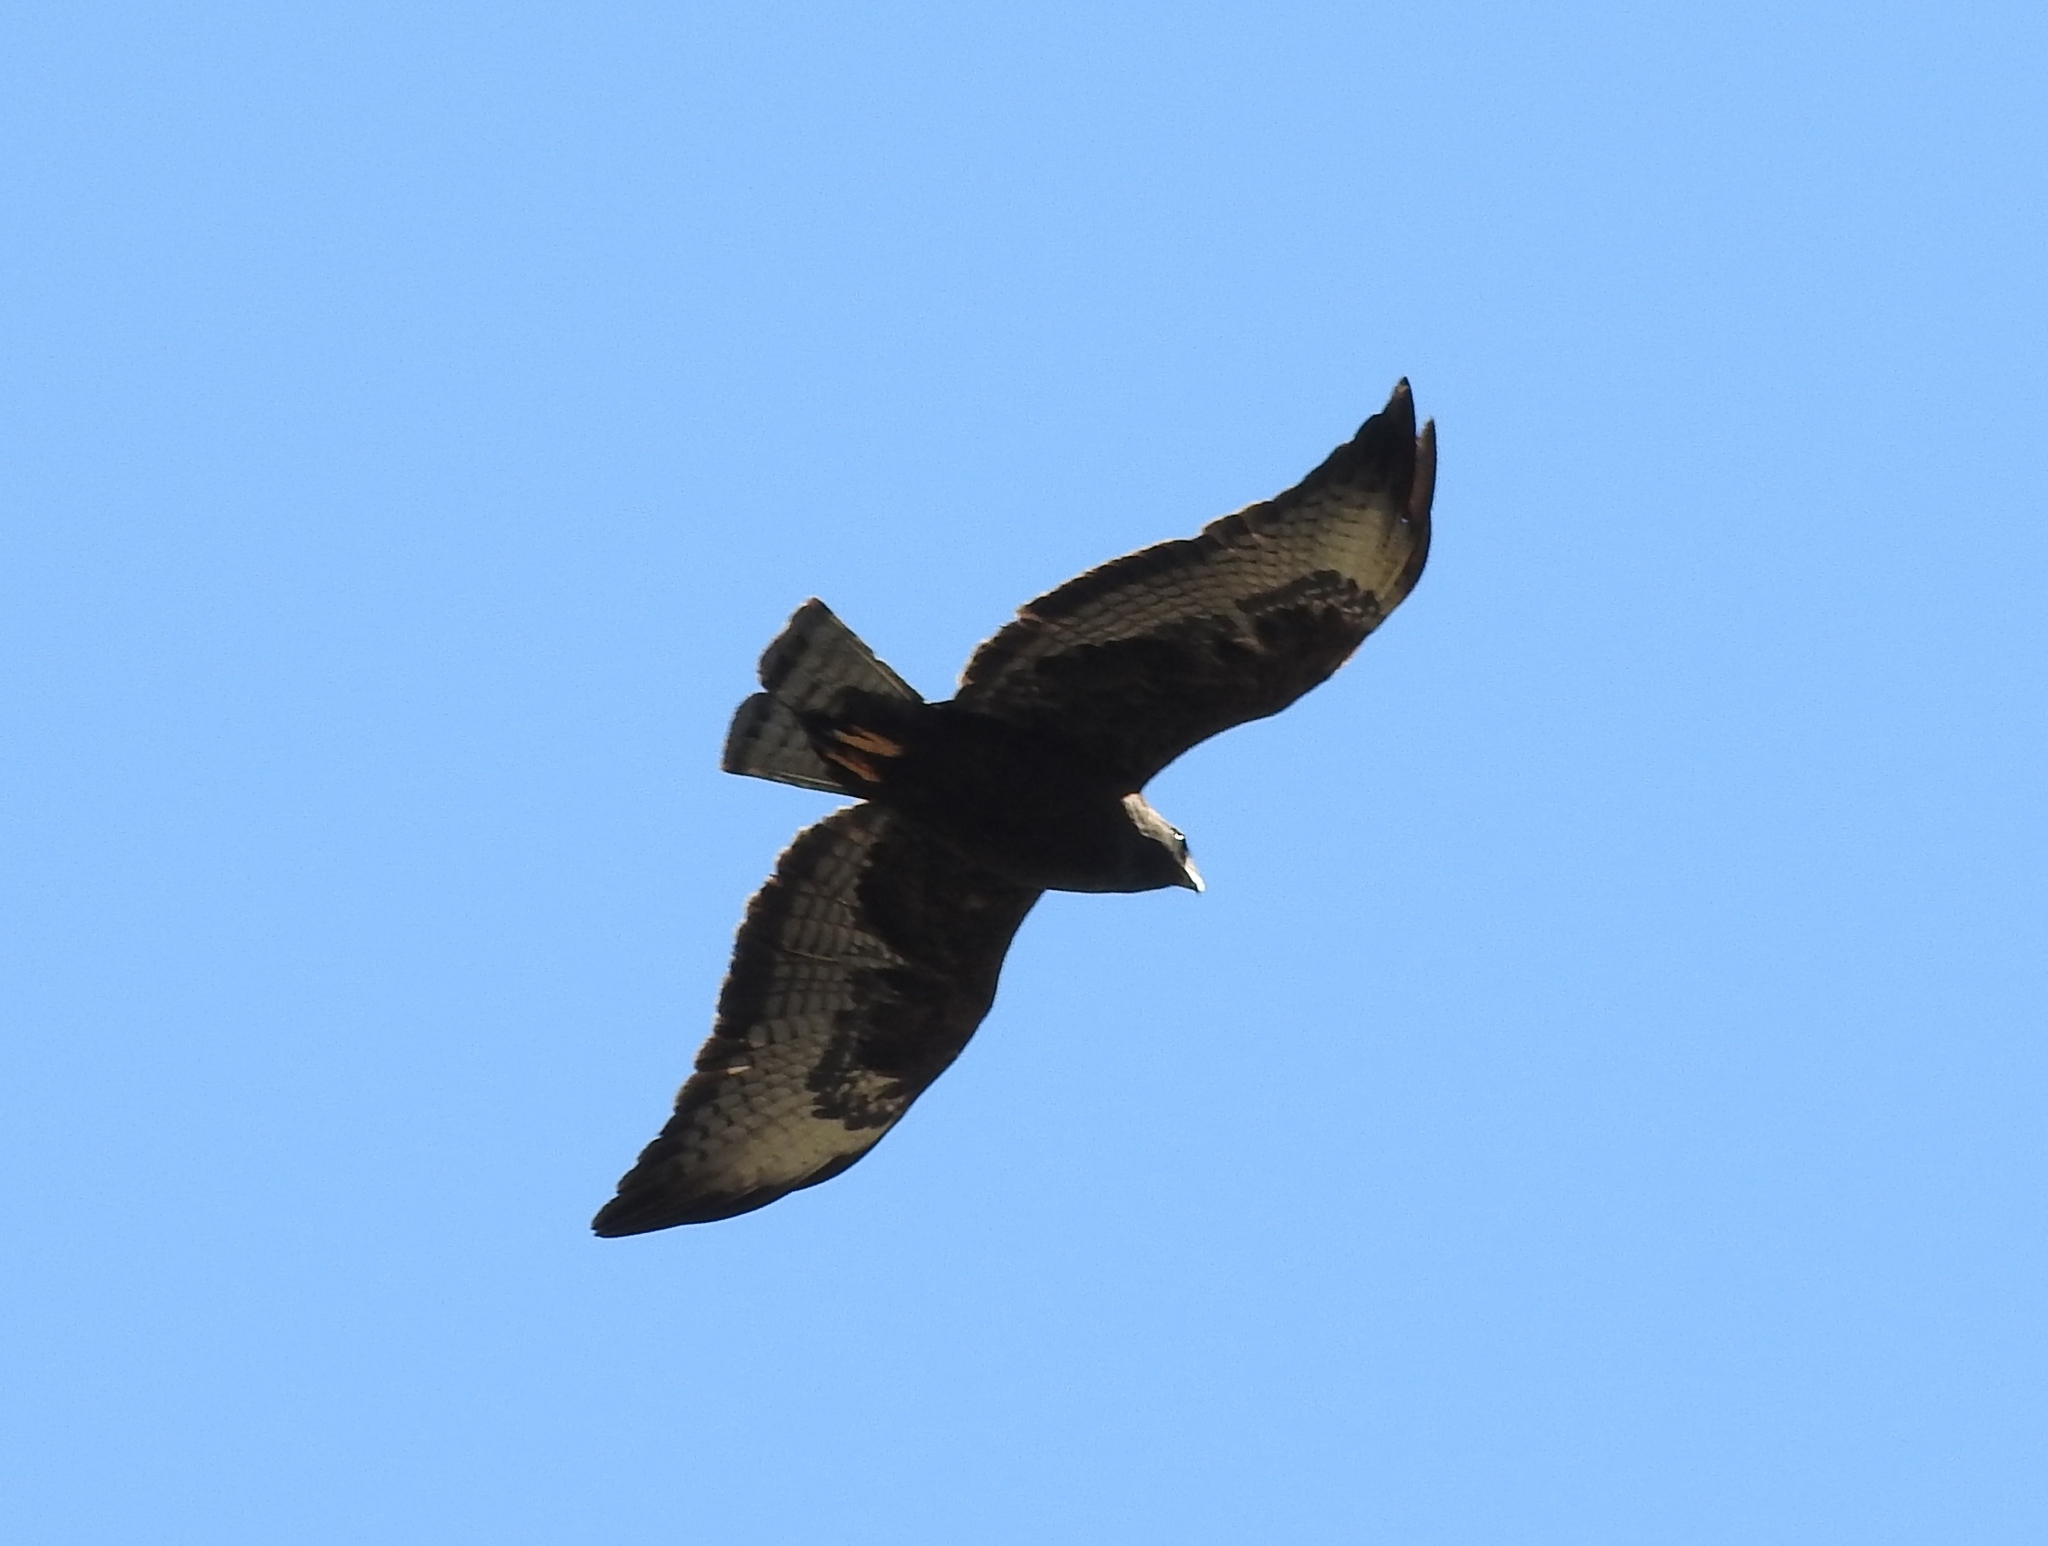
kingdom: Animalia
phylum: Chordata
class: Aves
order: Accipitriformes
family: Accipitridae
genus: Buteo
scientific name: Buteo brachyurus
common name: Short-tailed hawk
